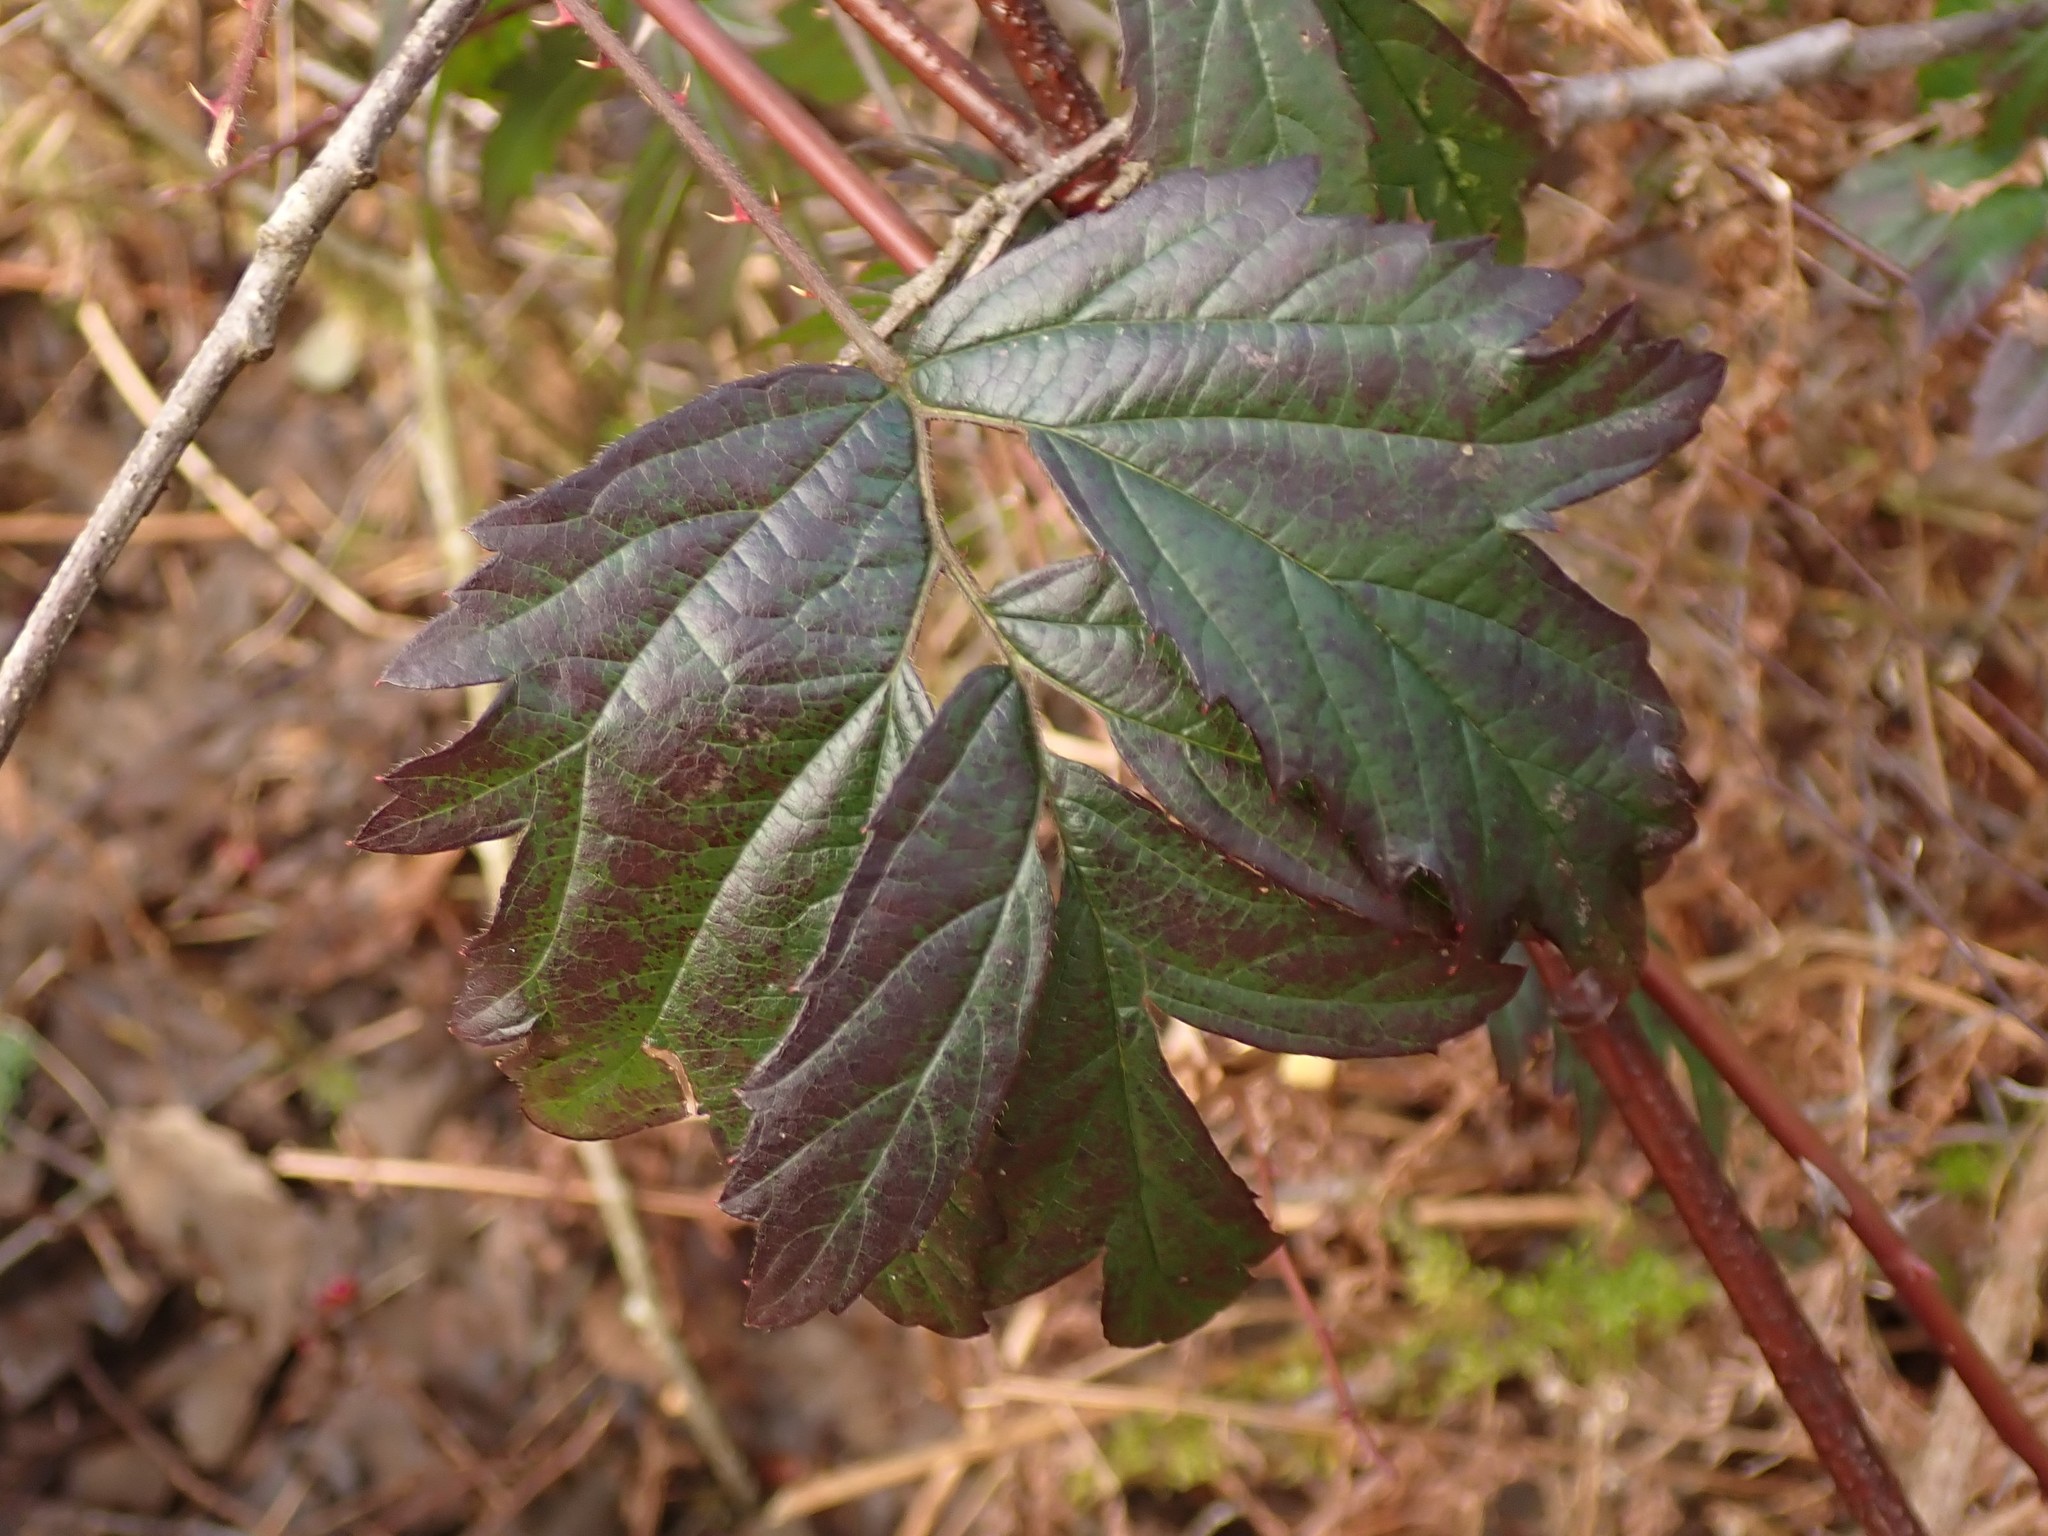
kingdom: Plantae
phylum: Tracheophyta
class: Magnoliopsida
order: Rosales
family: Rosaceae
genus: Rubus
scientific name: Rubus laciniatus
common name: Evergreen blackberry
